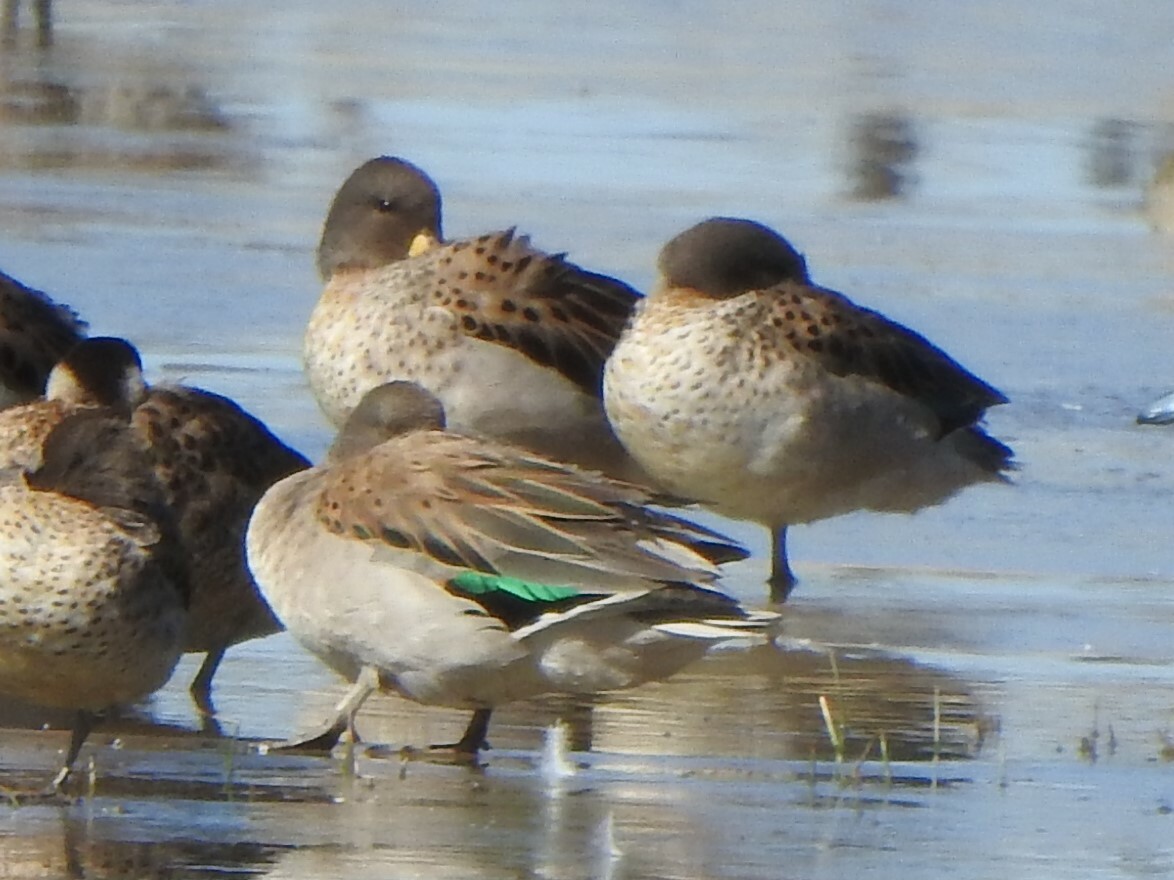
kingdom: Animalia
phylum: Chordata
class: Aves
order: Anseriformes
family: Anatidae
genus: Anas
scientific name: Anas flavirostris
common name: Yellow-billed teal
